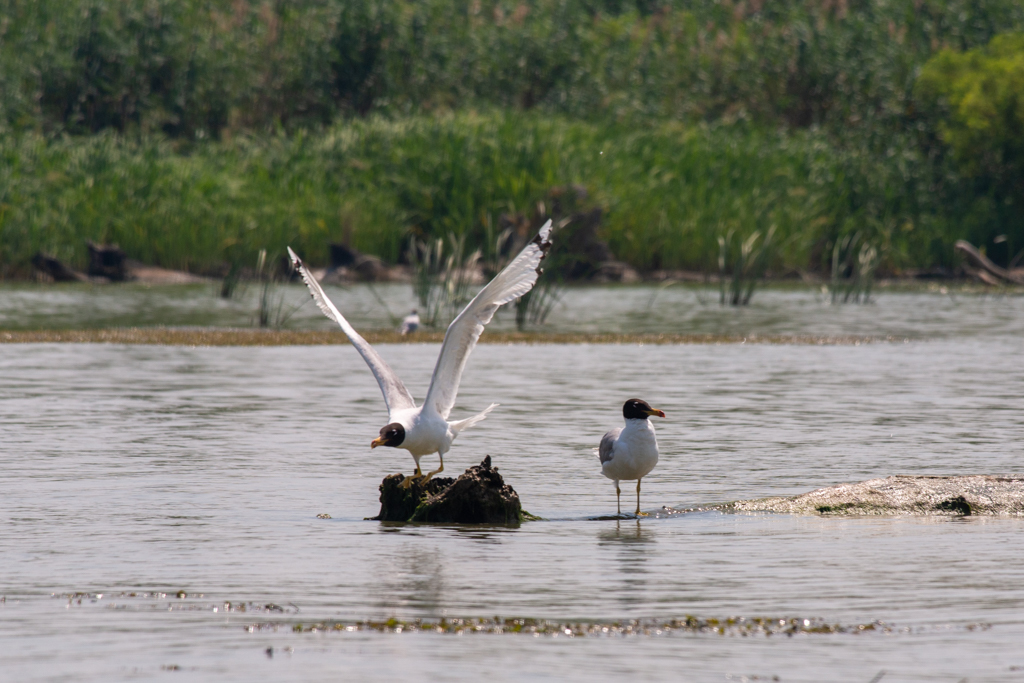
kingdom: Animalia
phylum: Chordata
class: Aves
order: Charadriiformes
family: Laridae
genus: Ichthyaetus
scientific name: Ichthyaetus ichthyaetus
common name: Pallas's gull
